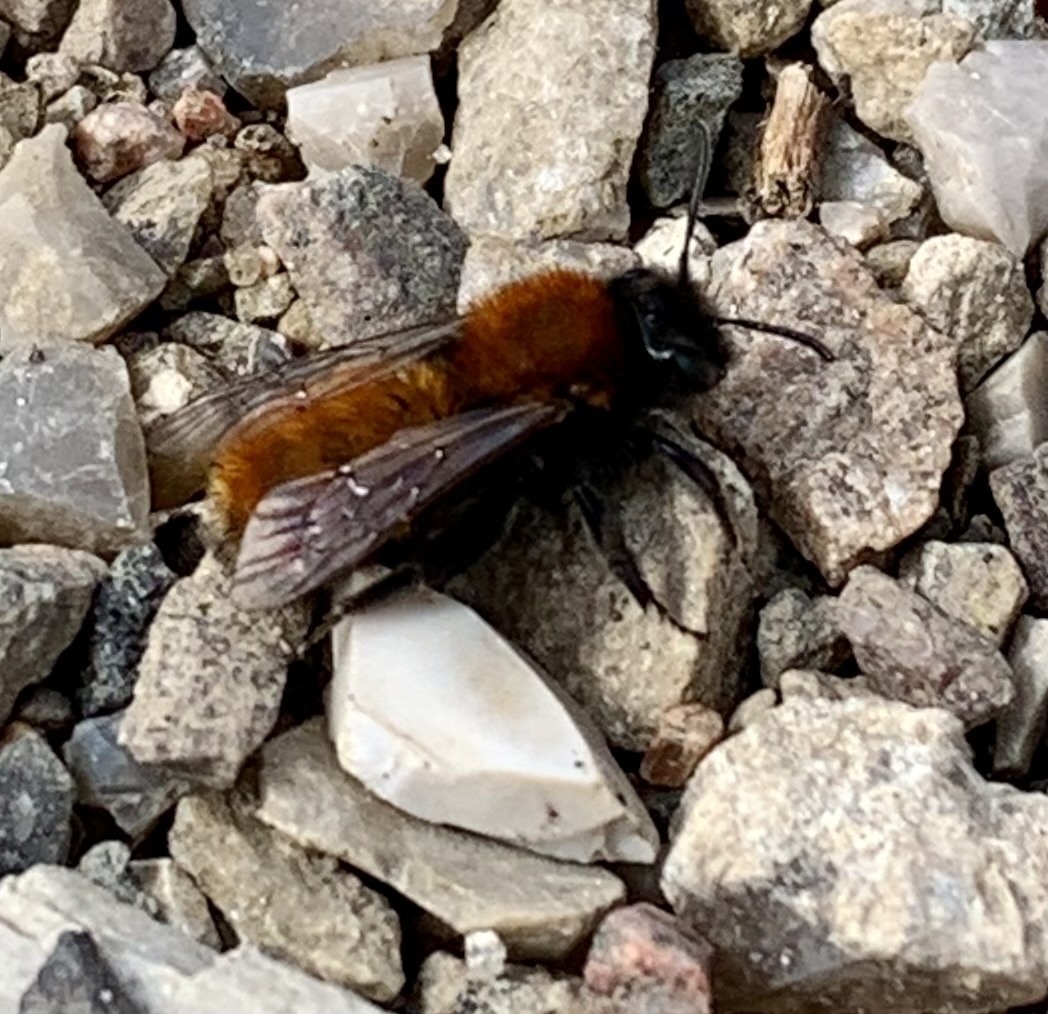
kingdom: Animalia
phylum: Arthropoda
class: Insecta
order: Hymenoptera
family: Andrenidae
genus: Andrena
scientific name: Andrena fulva
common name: Tawny mining bee
